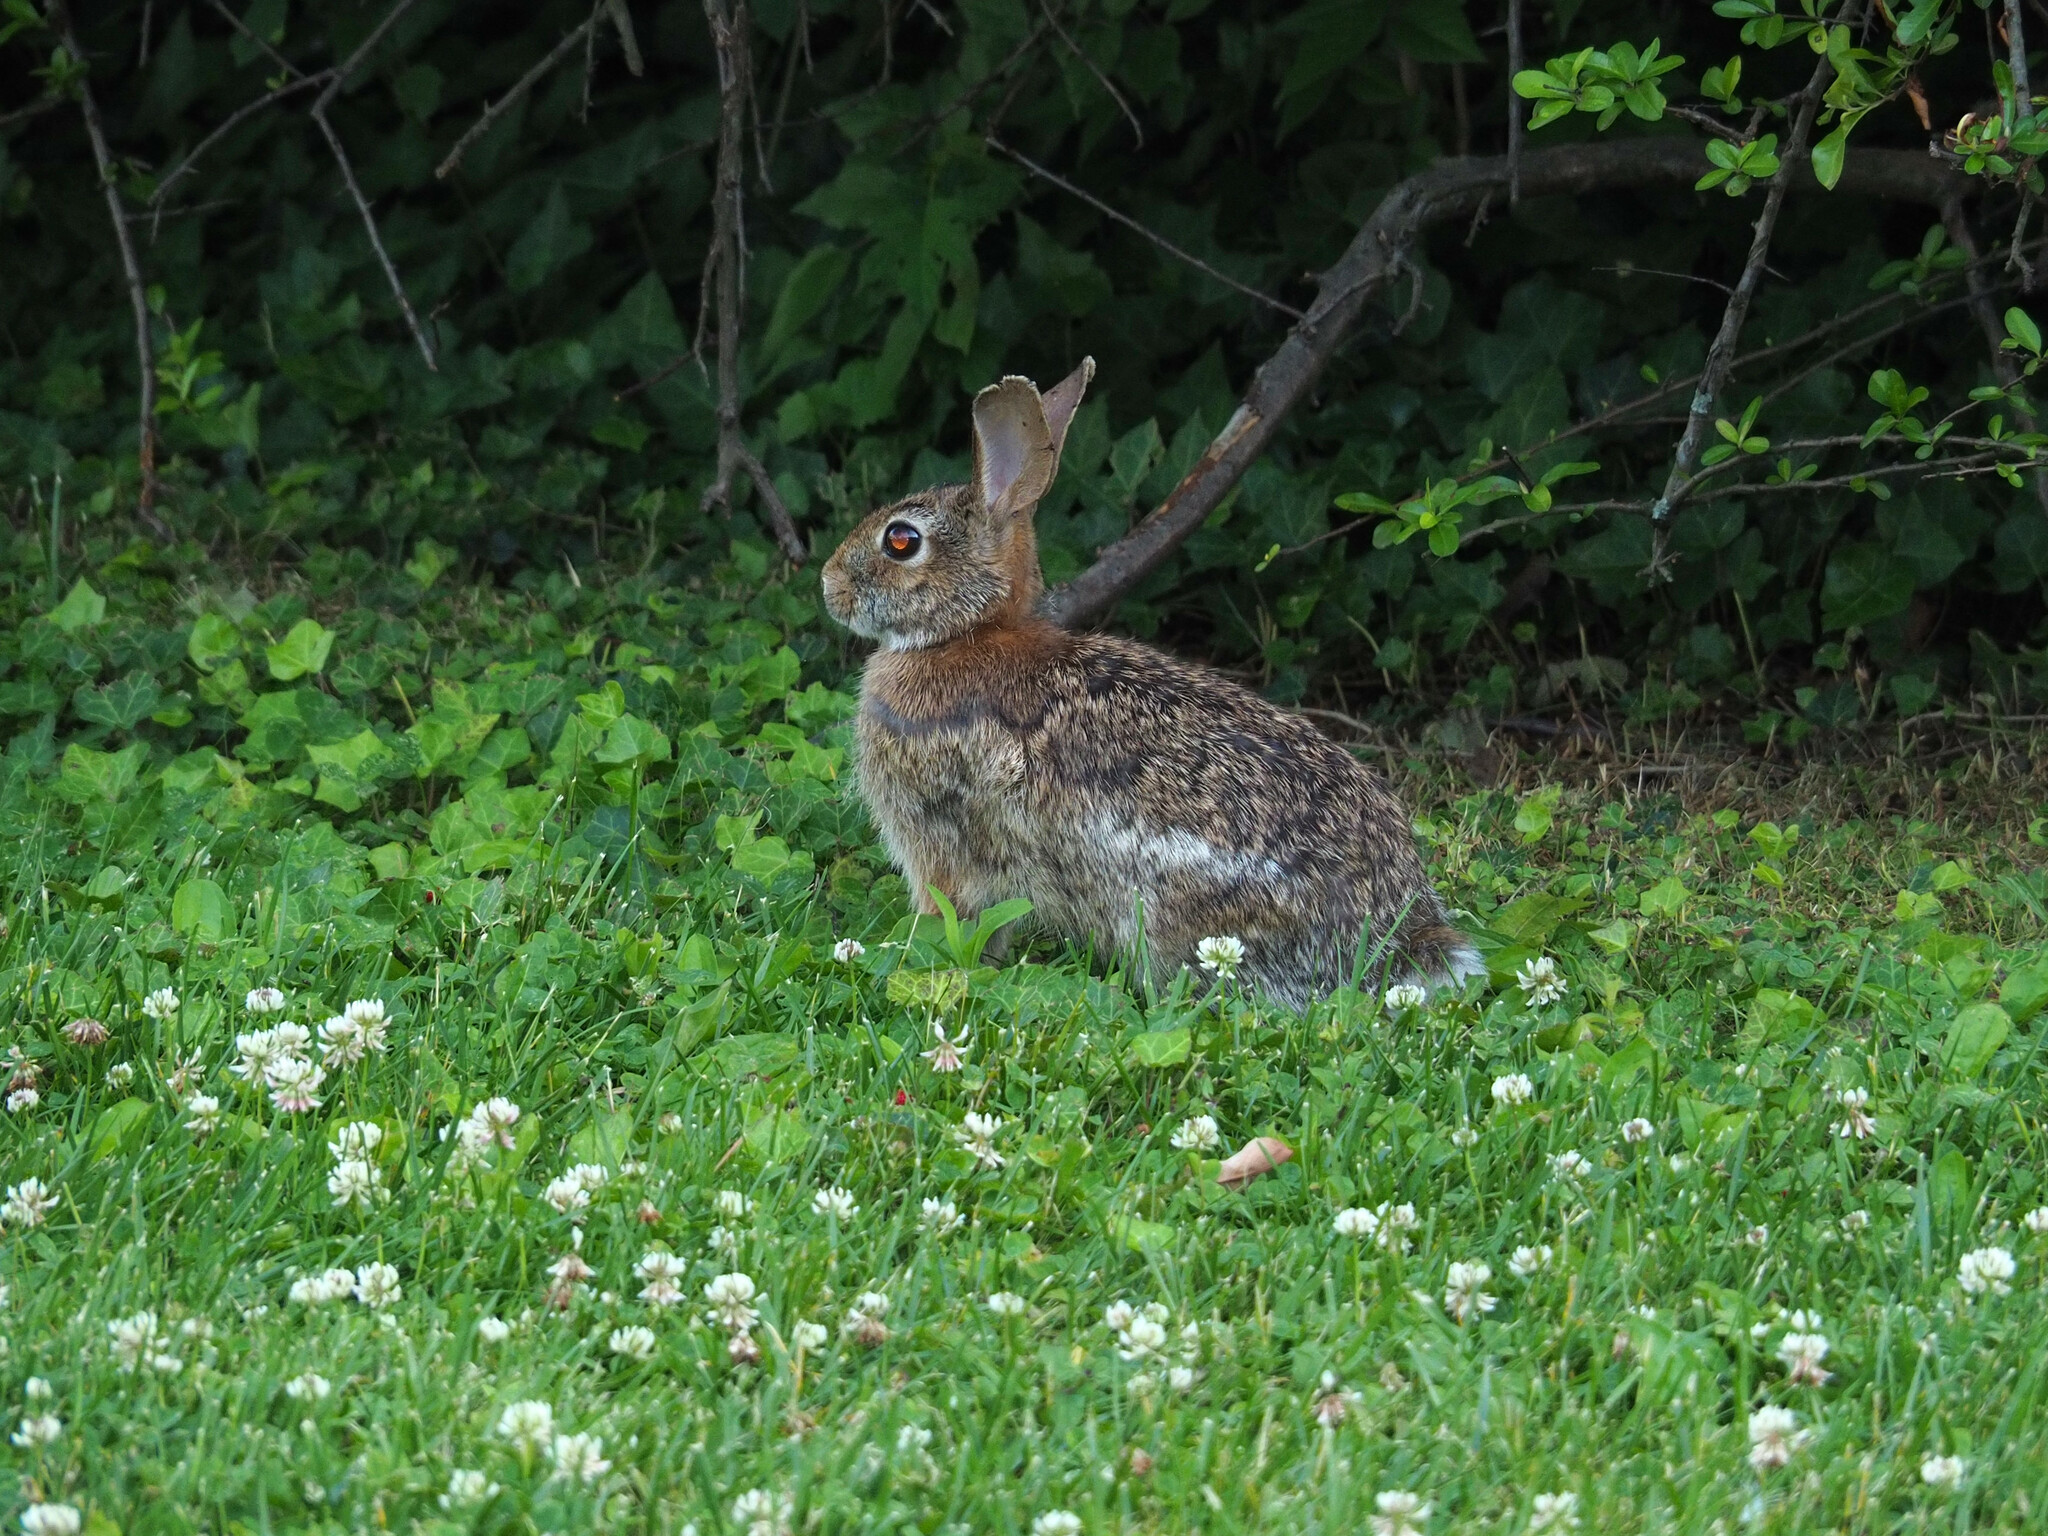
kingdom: Animalia
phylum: Chordata
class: Mammalia
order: Lagomorpha
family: Leporidae
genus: Sylvilagus
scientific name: Sylvilagus floridanus
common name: Eastern cottontail
